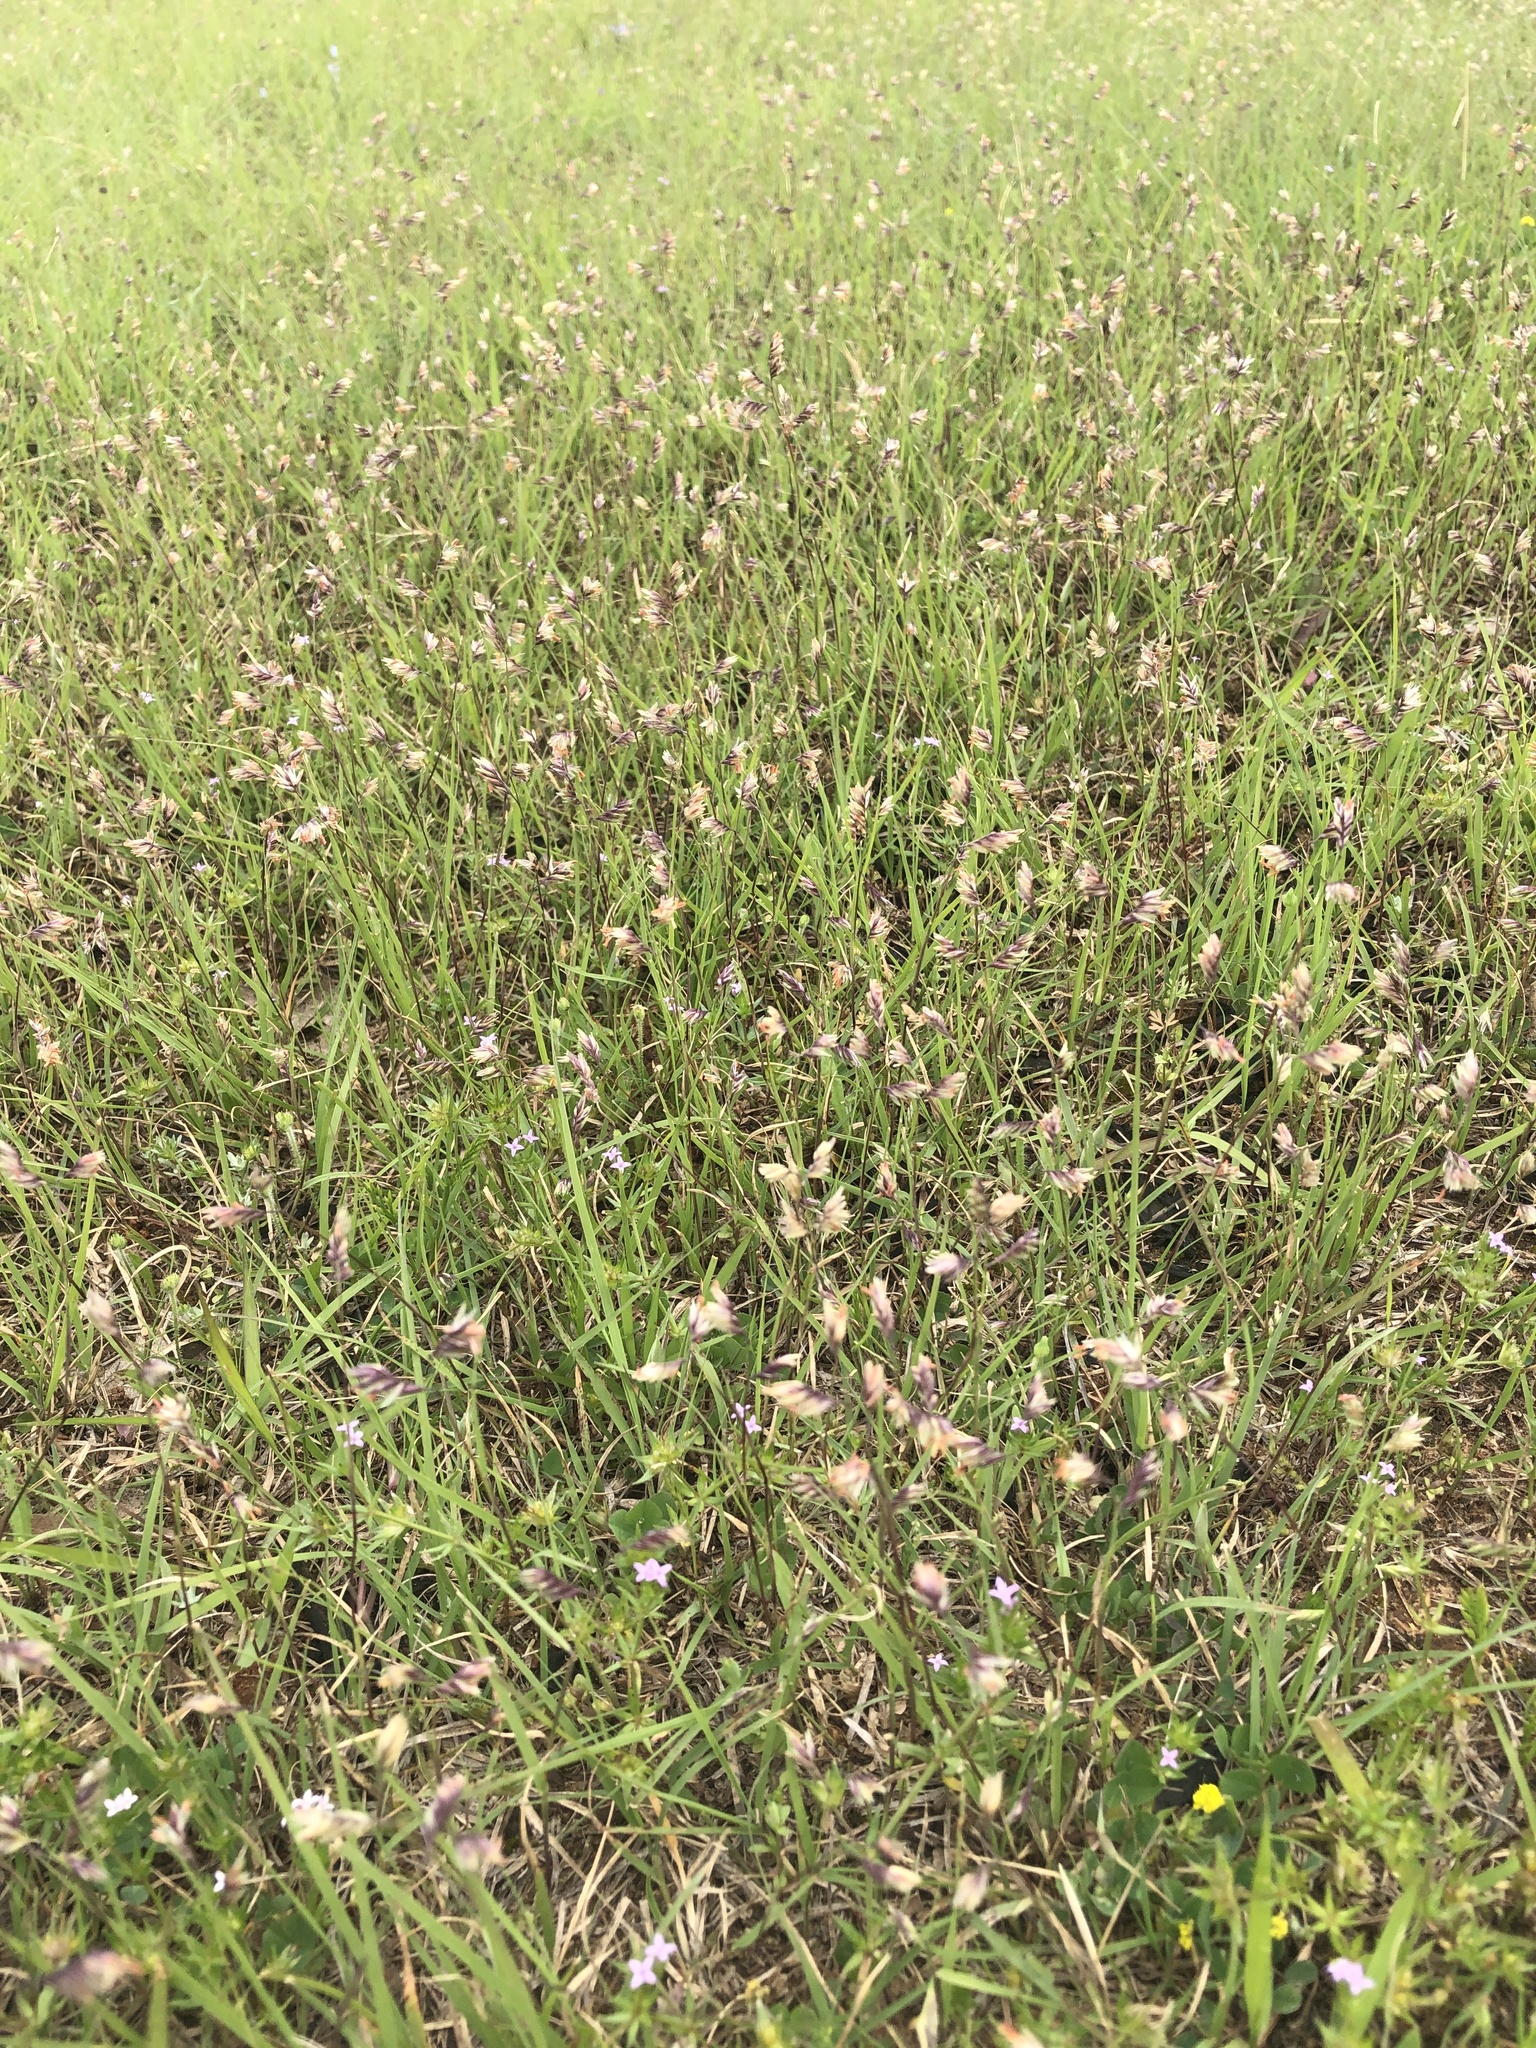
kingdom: Plantae
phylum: Tracheophyta
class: Liliopsida
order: Poales
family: Poaceae
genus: Bouteloua
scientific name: Bouteloua dactyloides
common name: Buffalo grass
